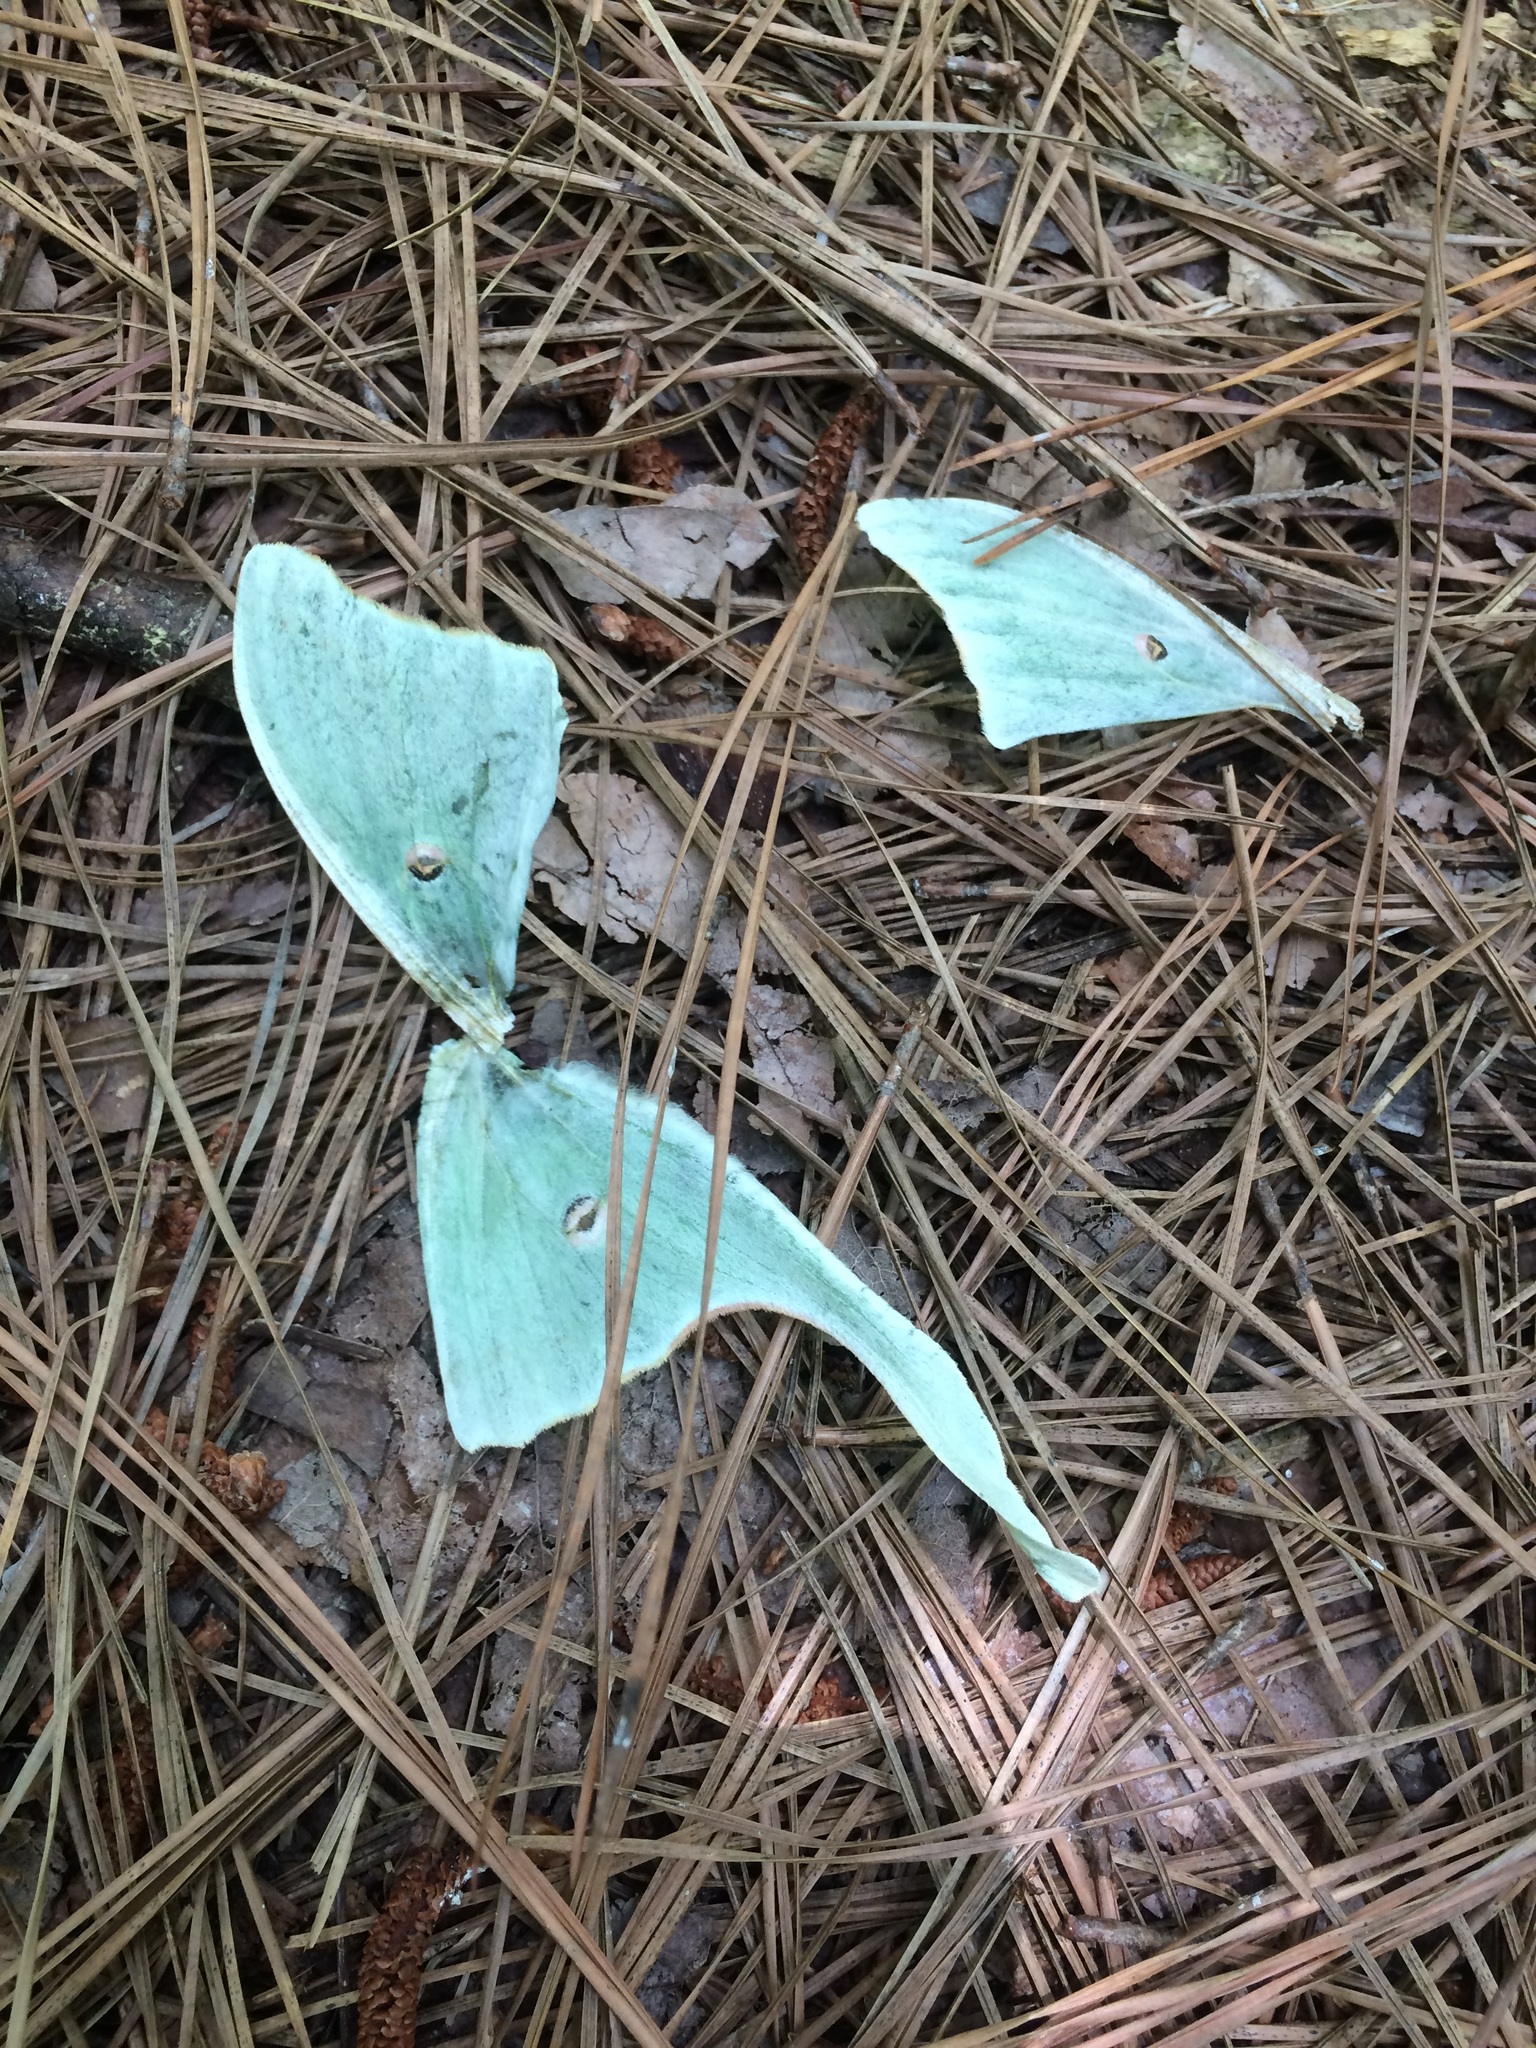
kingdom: Animalia
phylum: Arthropoda
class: Insecta
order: Lepidoptera
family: Saturniidae
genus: Actias
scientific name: Actias luna
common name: Luna moth
